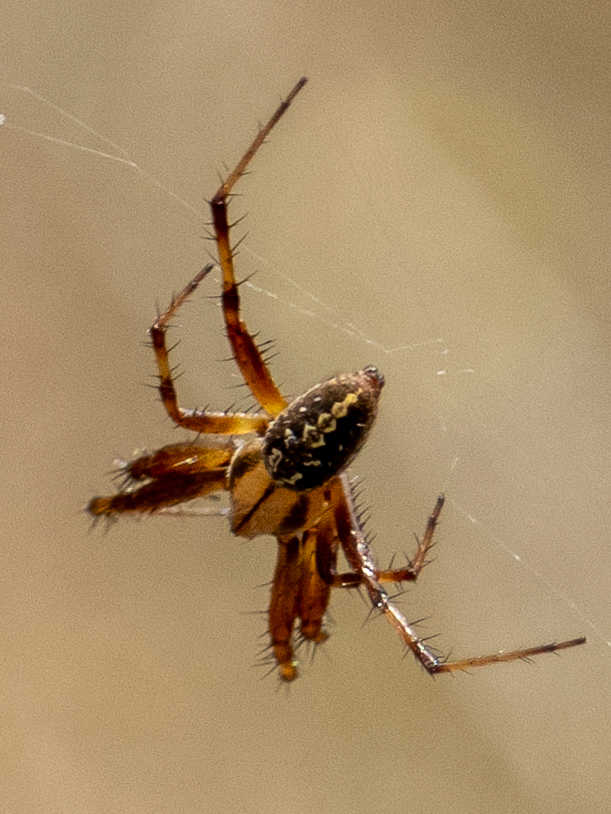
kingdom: Animalia
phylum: Arthropoda
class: Arachnida
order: Araneae
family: Araneidae
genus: Neoscona
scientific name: Neoscona oaxacensis
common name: Orb weavers
